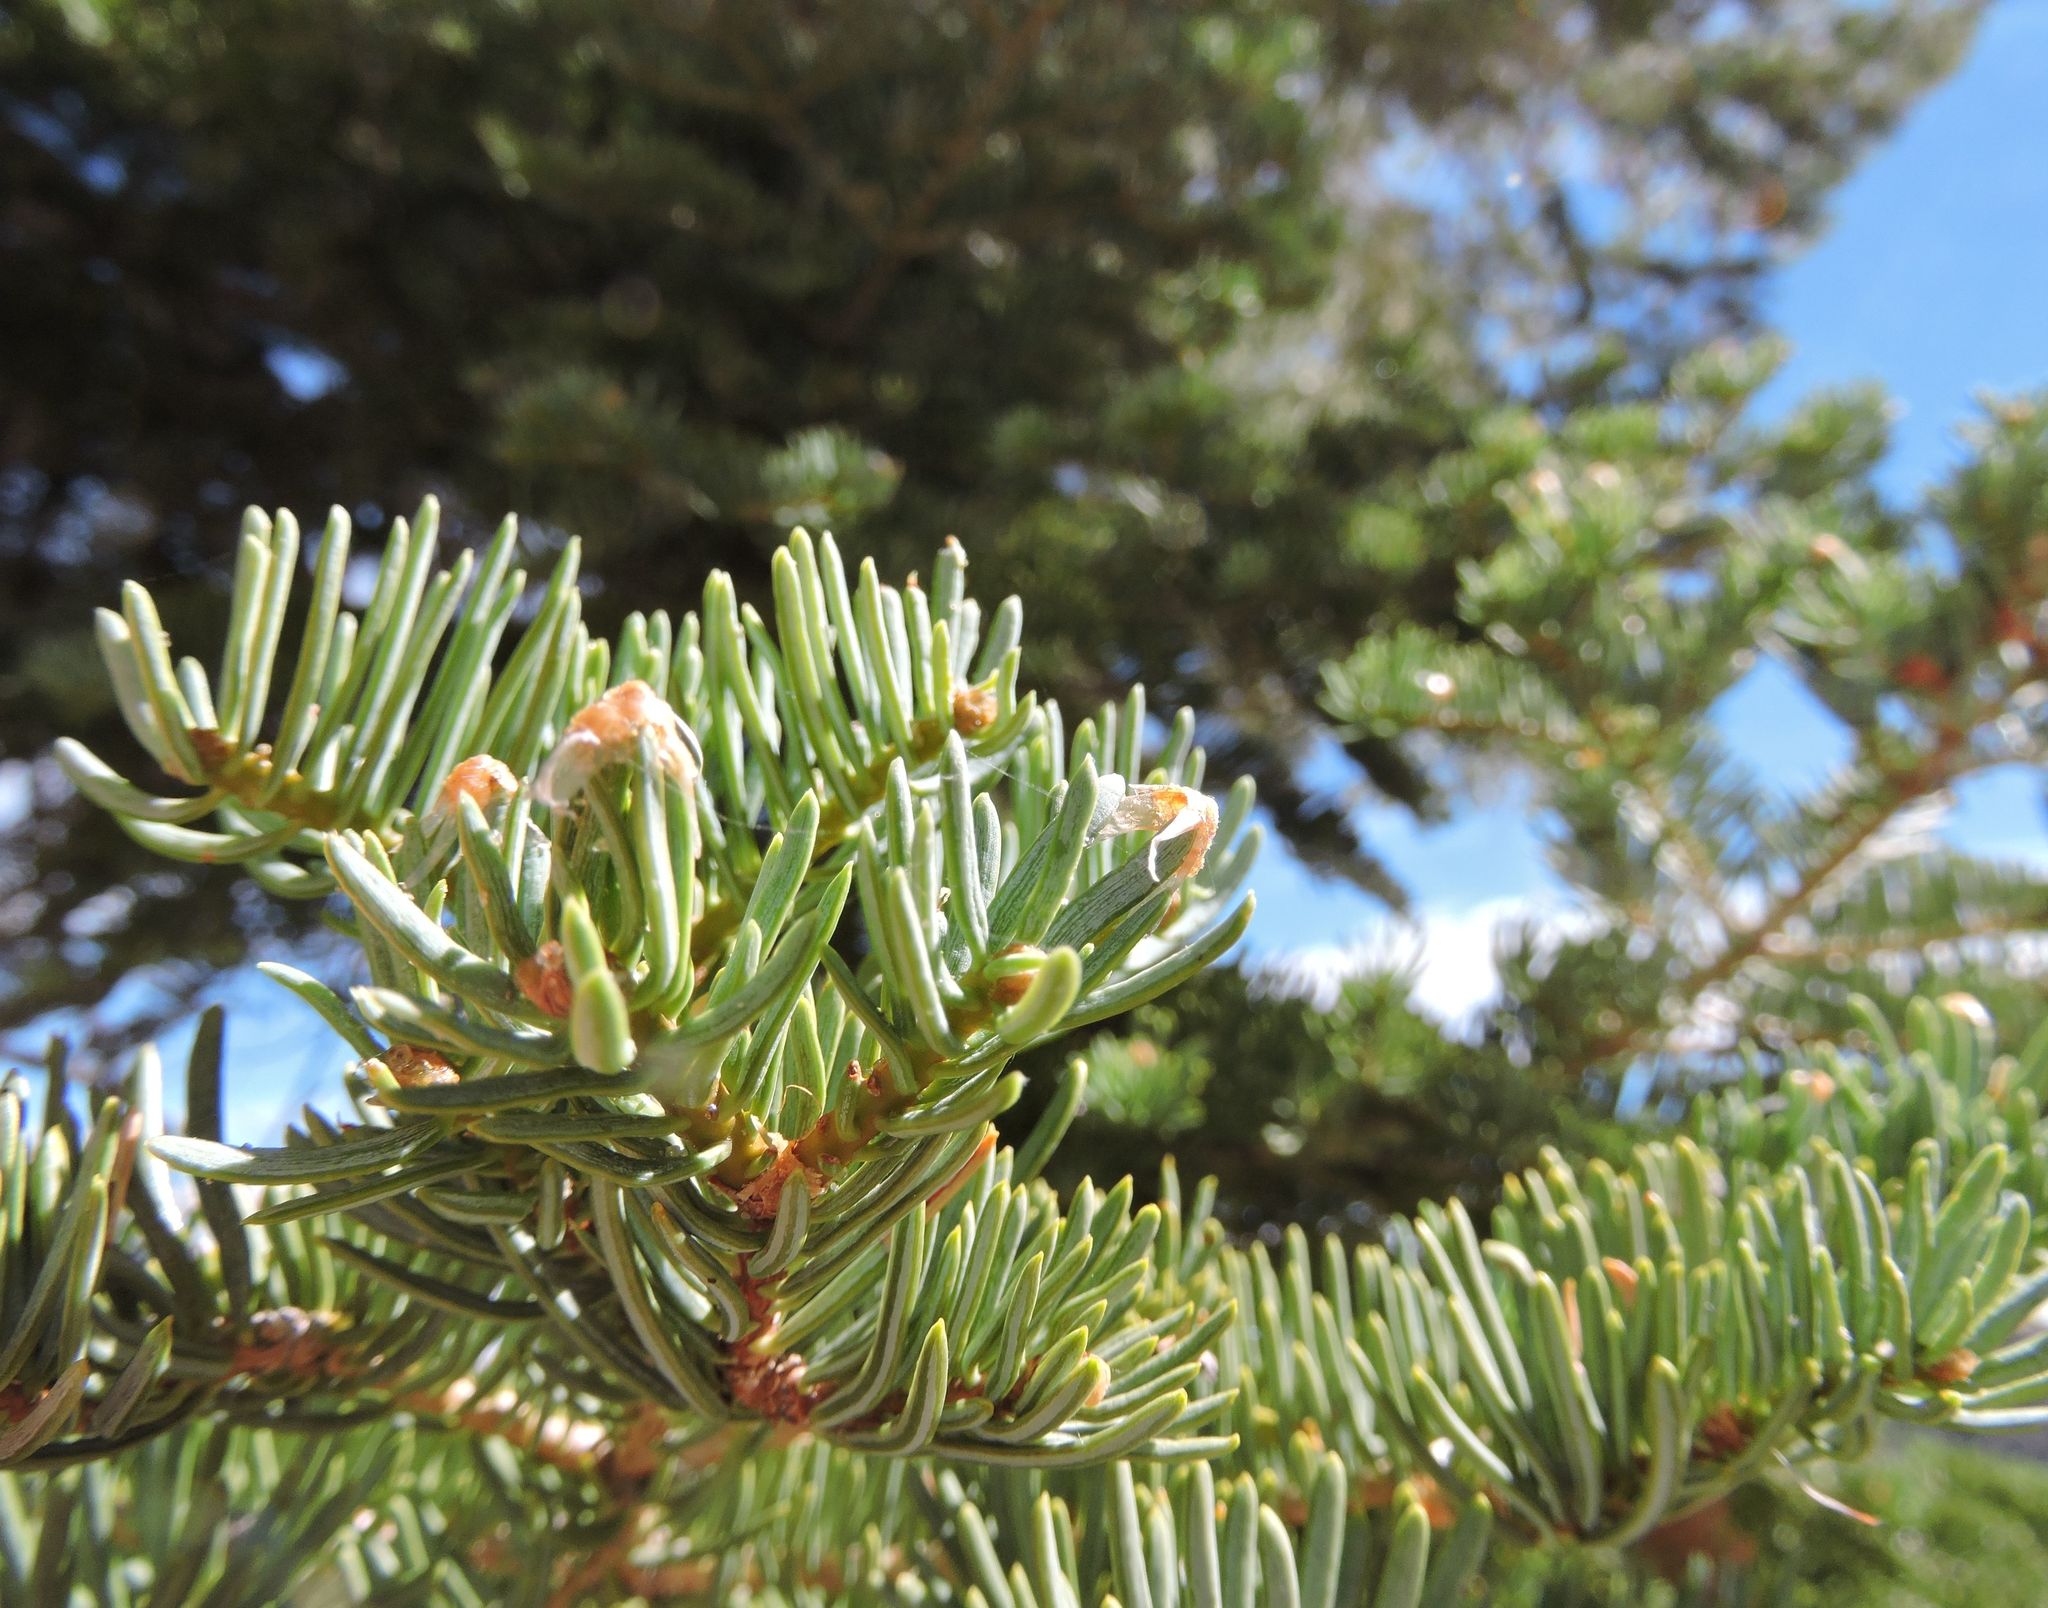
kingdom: Plantae
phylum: Tracheophyta
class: Pinopsida
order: Pinales
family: Pinaceae
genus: Abies
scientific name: Abies concolor
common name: Colorado fir
